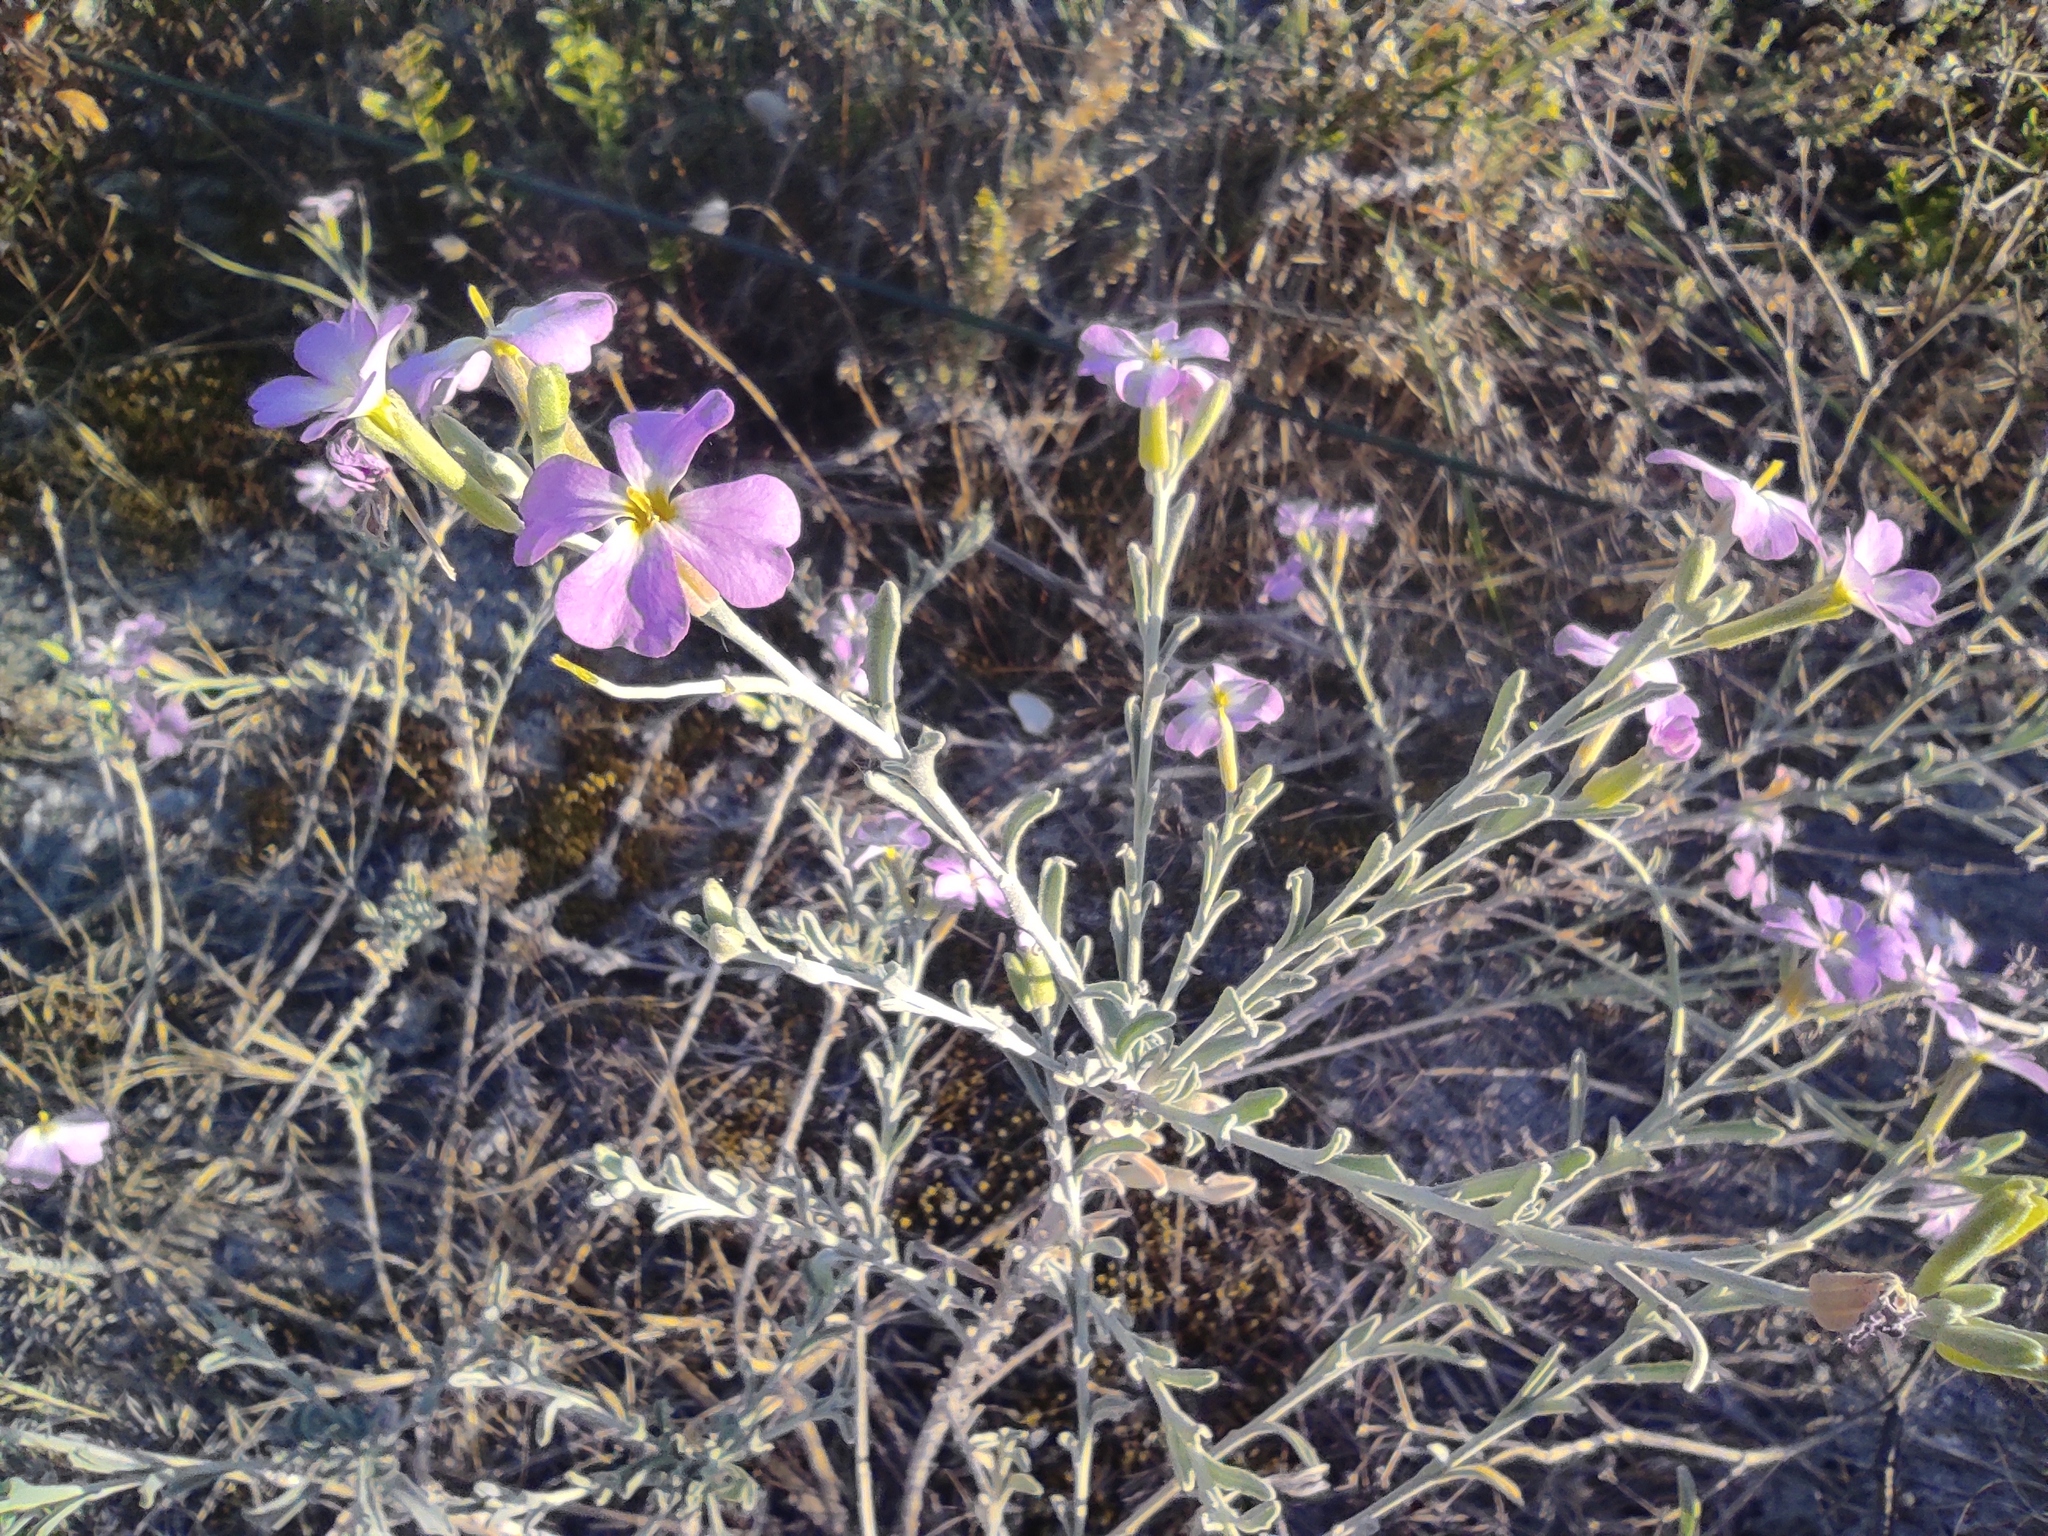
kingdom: Plantae
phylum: Tracheophyta
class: Magnoliopsida
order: Brassicales
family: Brassicaceae
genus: Marcuskochia
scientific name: Marcuskochia littorea
